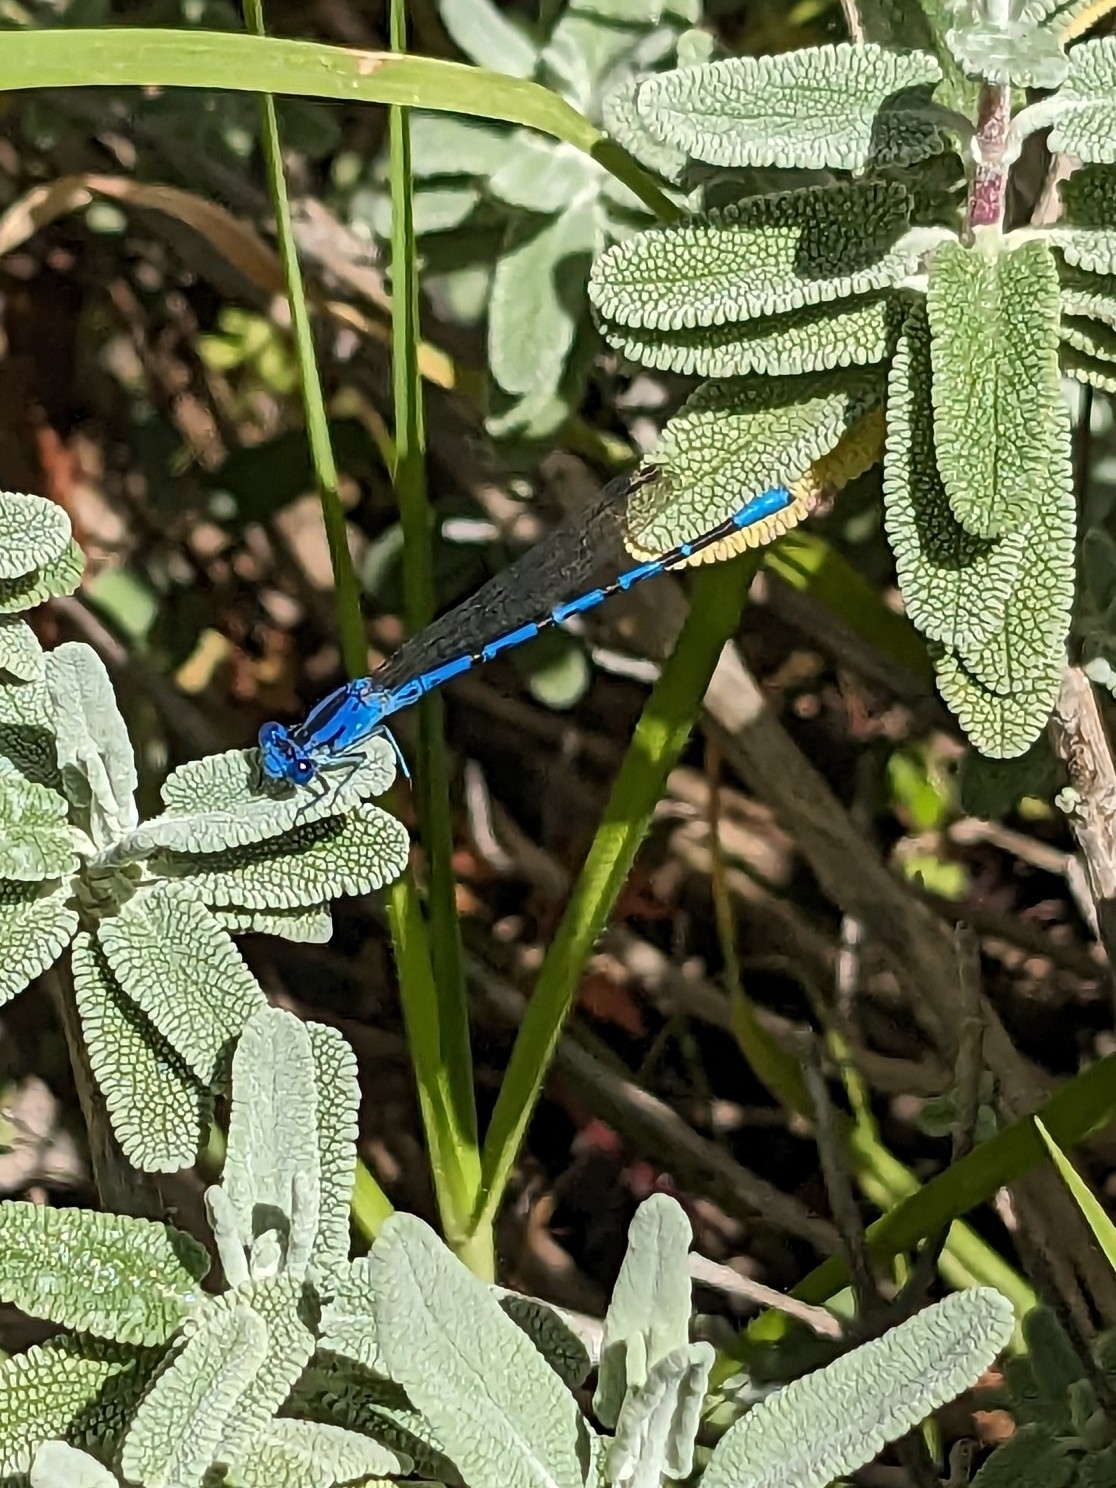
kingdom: Animalia
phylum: Arthropoda
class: Insecta
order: Odonata
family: Coenagrionidae
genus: Argia
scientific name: Argia vivida
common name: Vivid dancer
